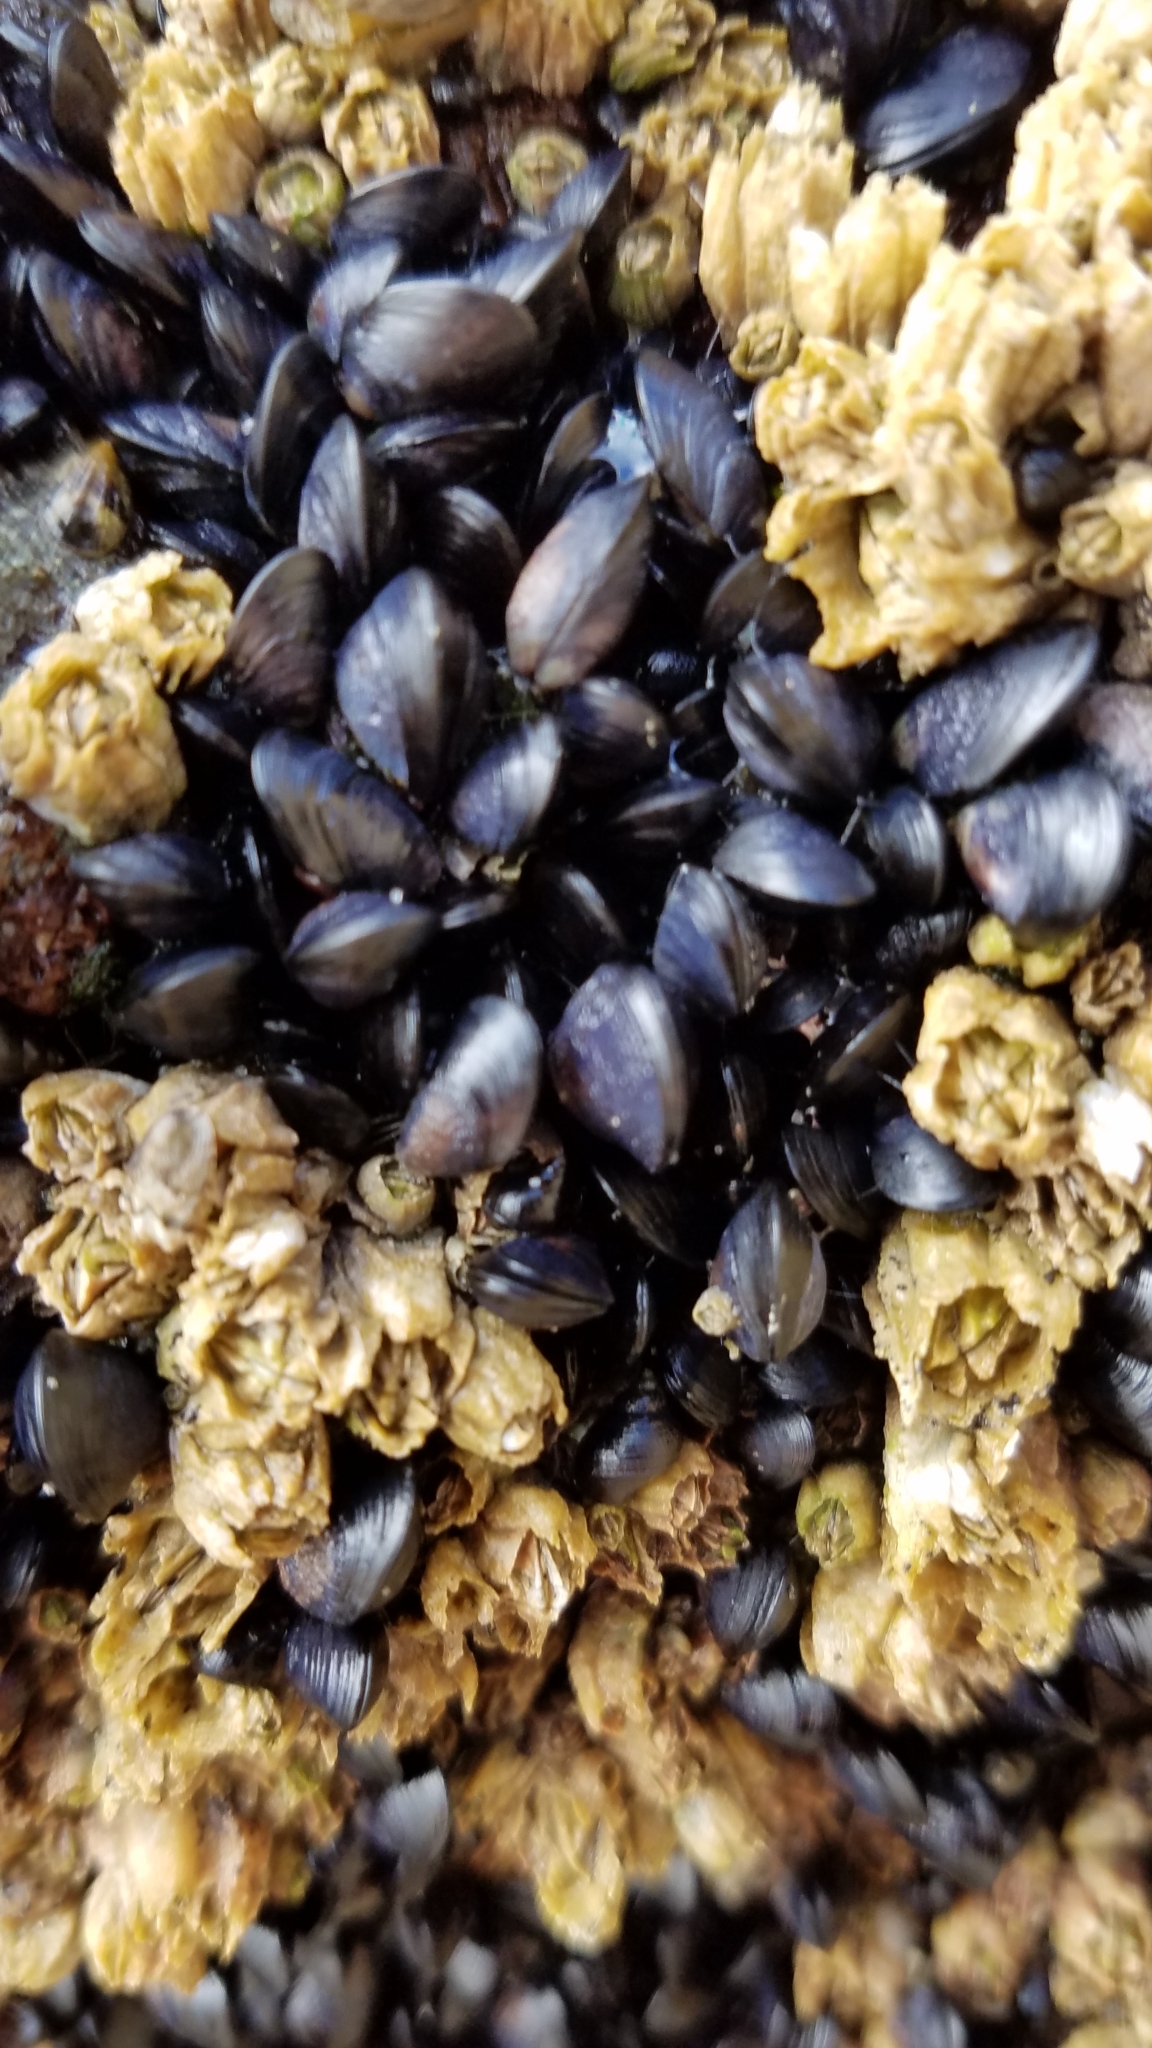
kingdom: Animalia
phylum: Mollusca
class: Bivalvia
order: Mytilida
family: Mytilidae
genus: Mytilus
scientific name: Mytilus trossulus
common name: Northern blue mussel
